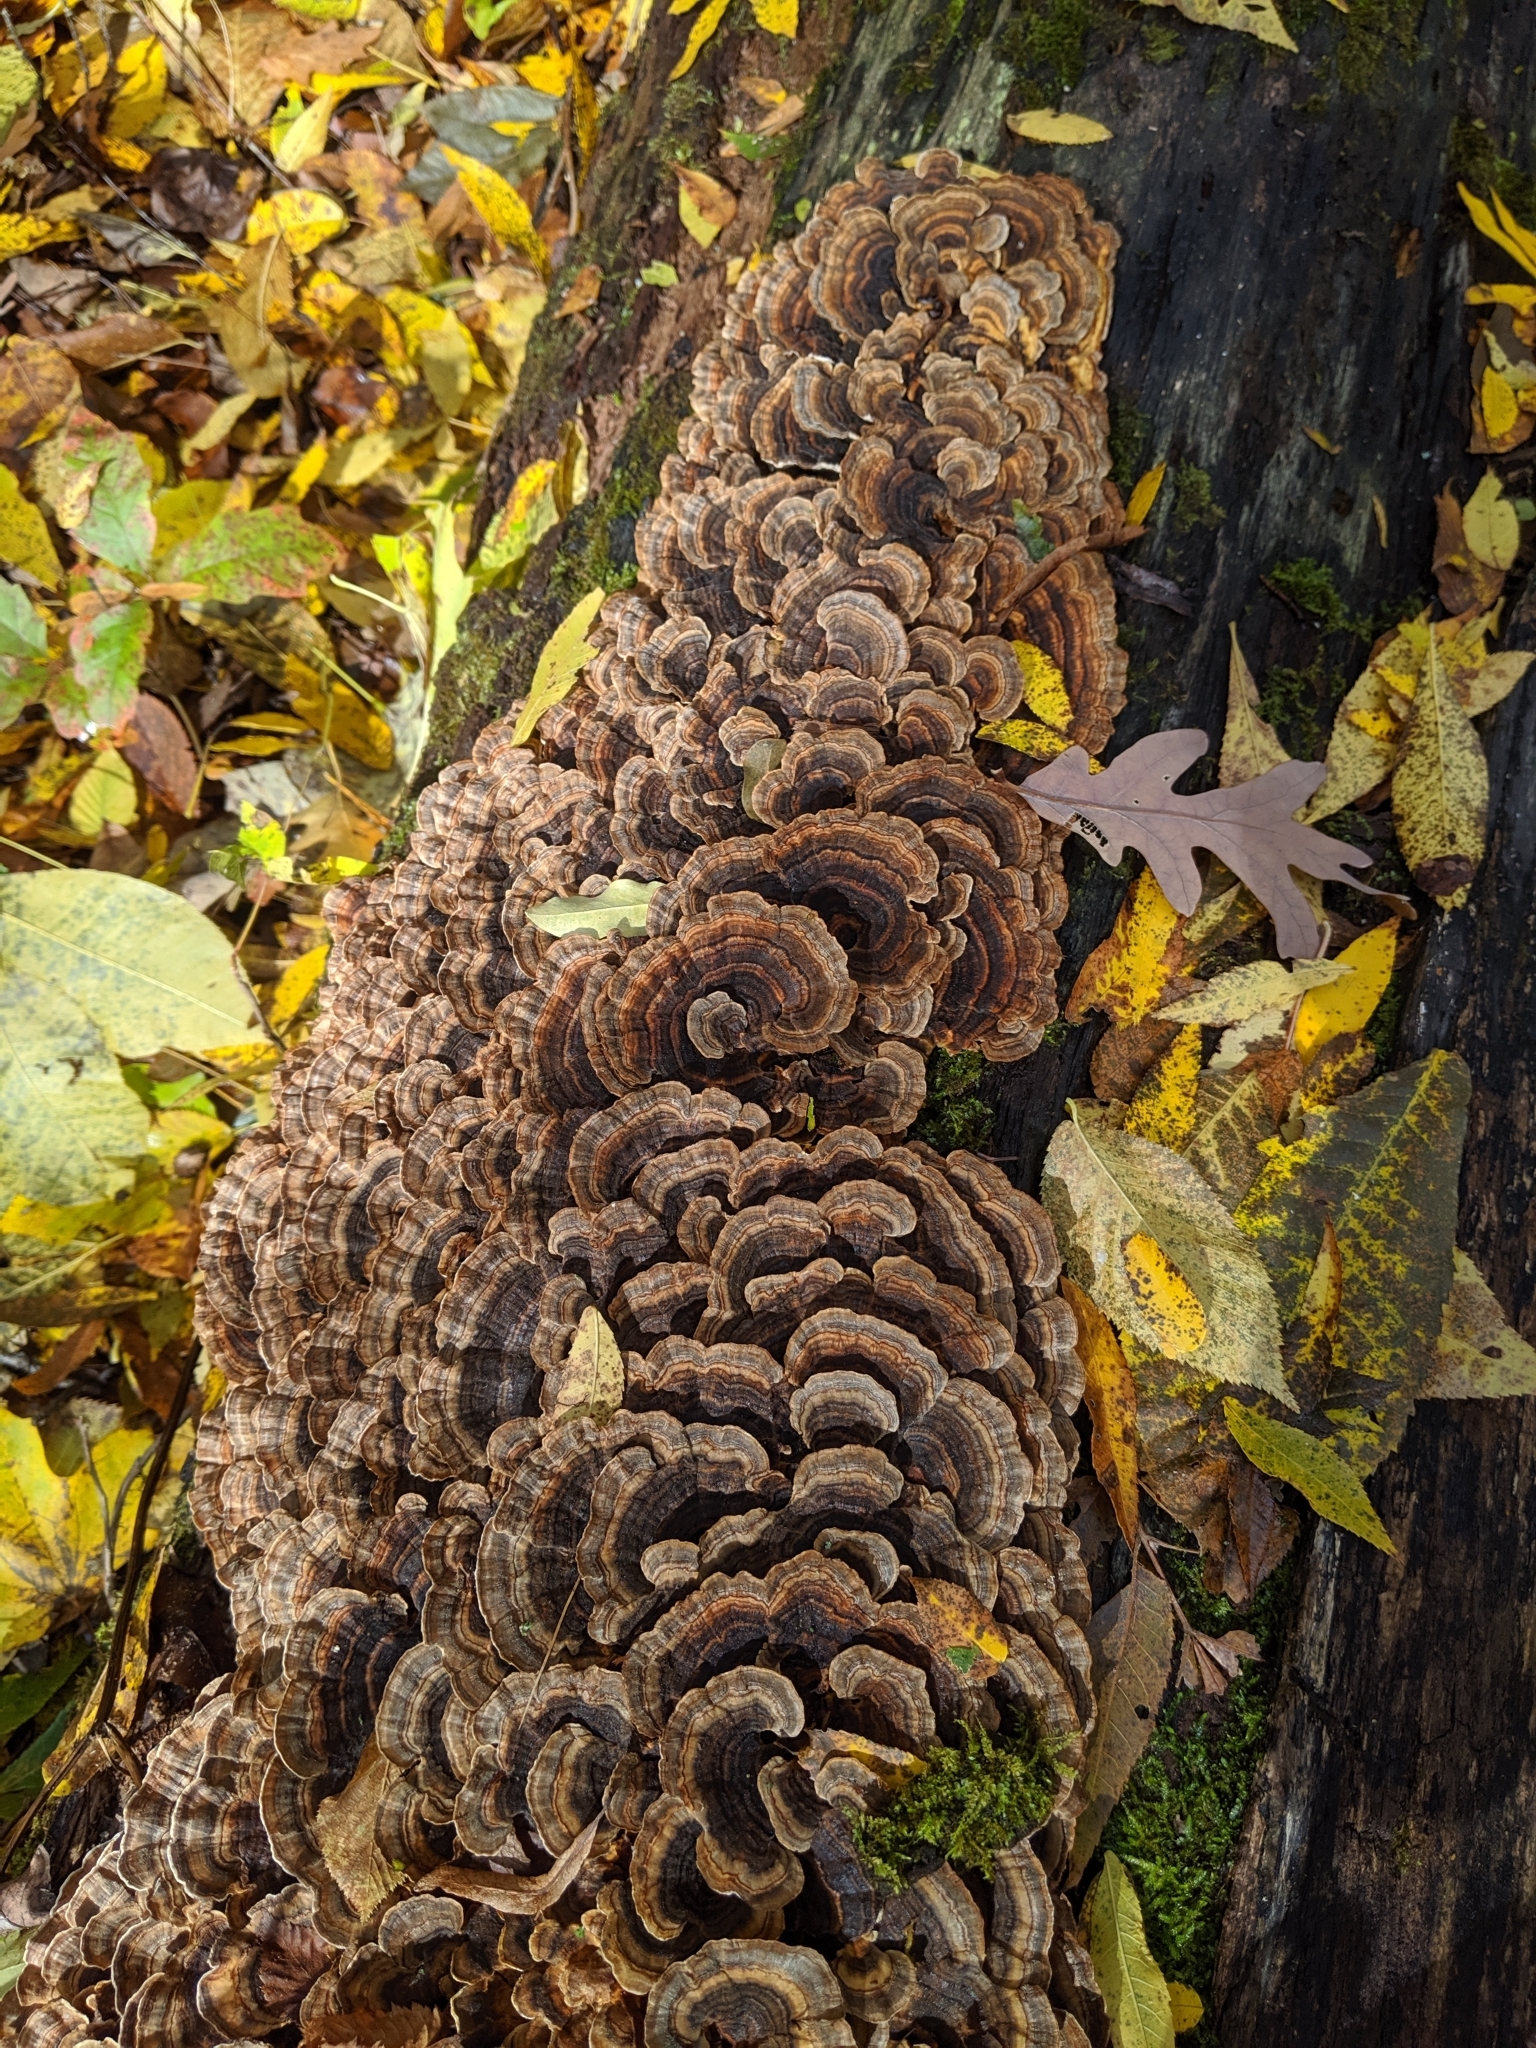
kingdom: Fungi
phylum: Basidiomycota
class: Agaricomycetes
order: Polyporales
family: Polyporaceae
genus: Trametes
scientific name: Trametes versicolor
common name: Turkeytail
